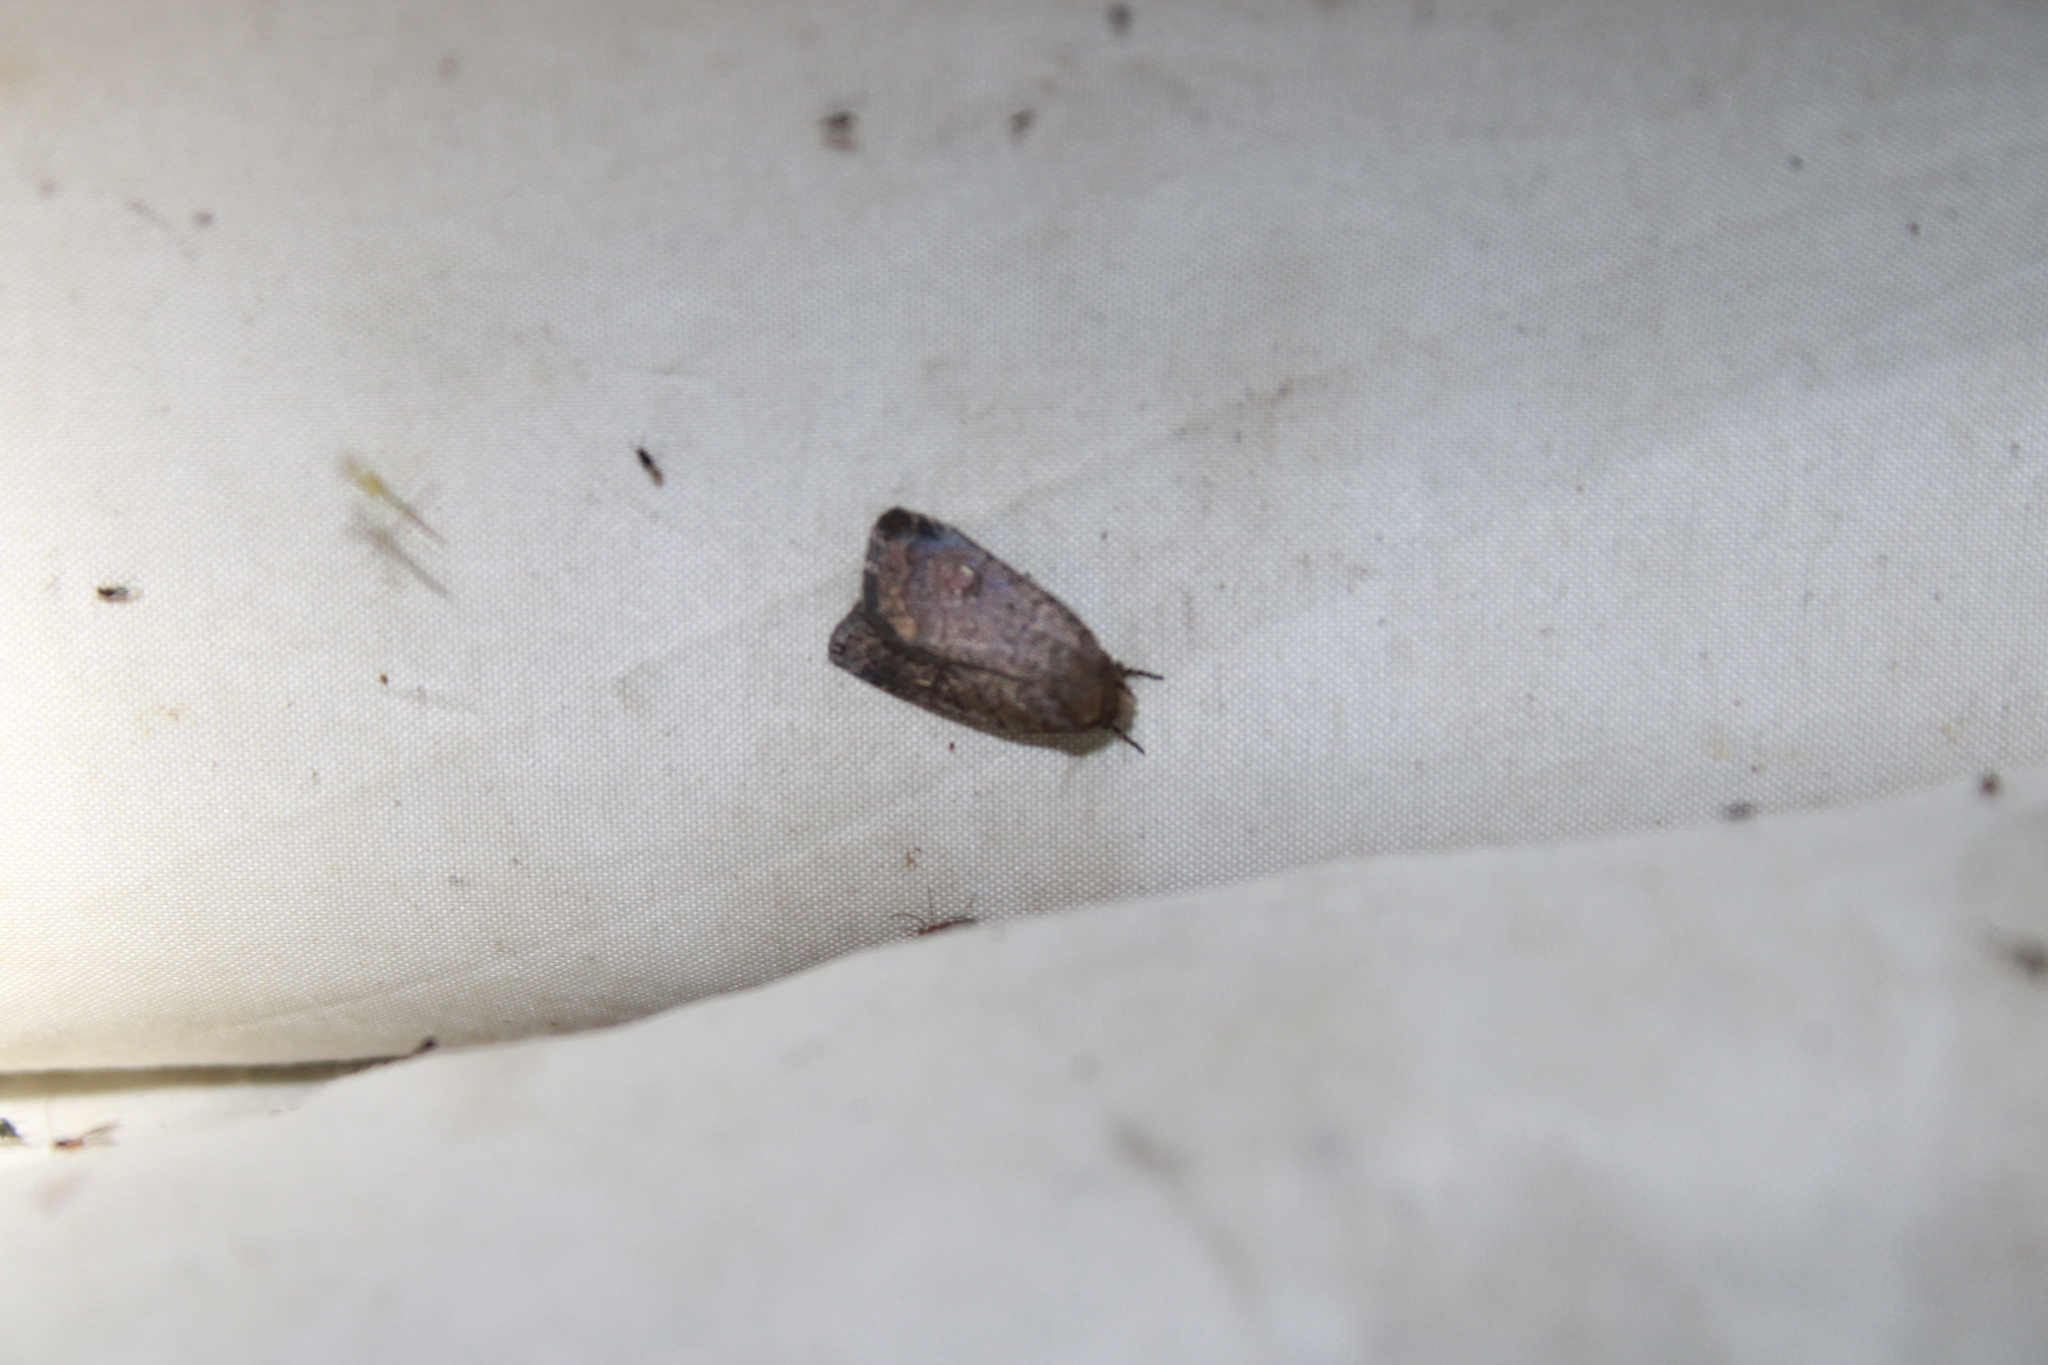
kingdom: Animalia
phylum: Arthropoda
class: Insecta
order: Lepidoptera
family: Noctuidae
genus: Athetis
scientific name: Athetis tarda
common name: Slowpoke moth
